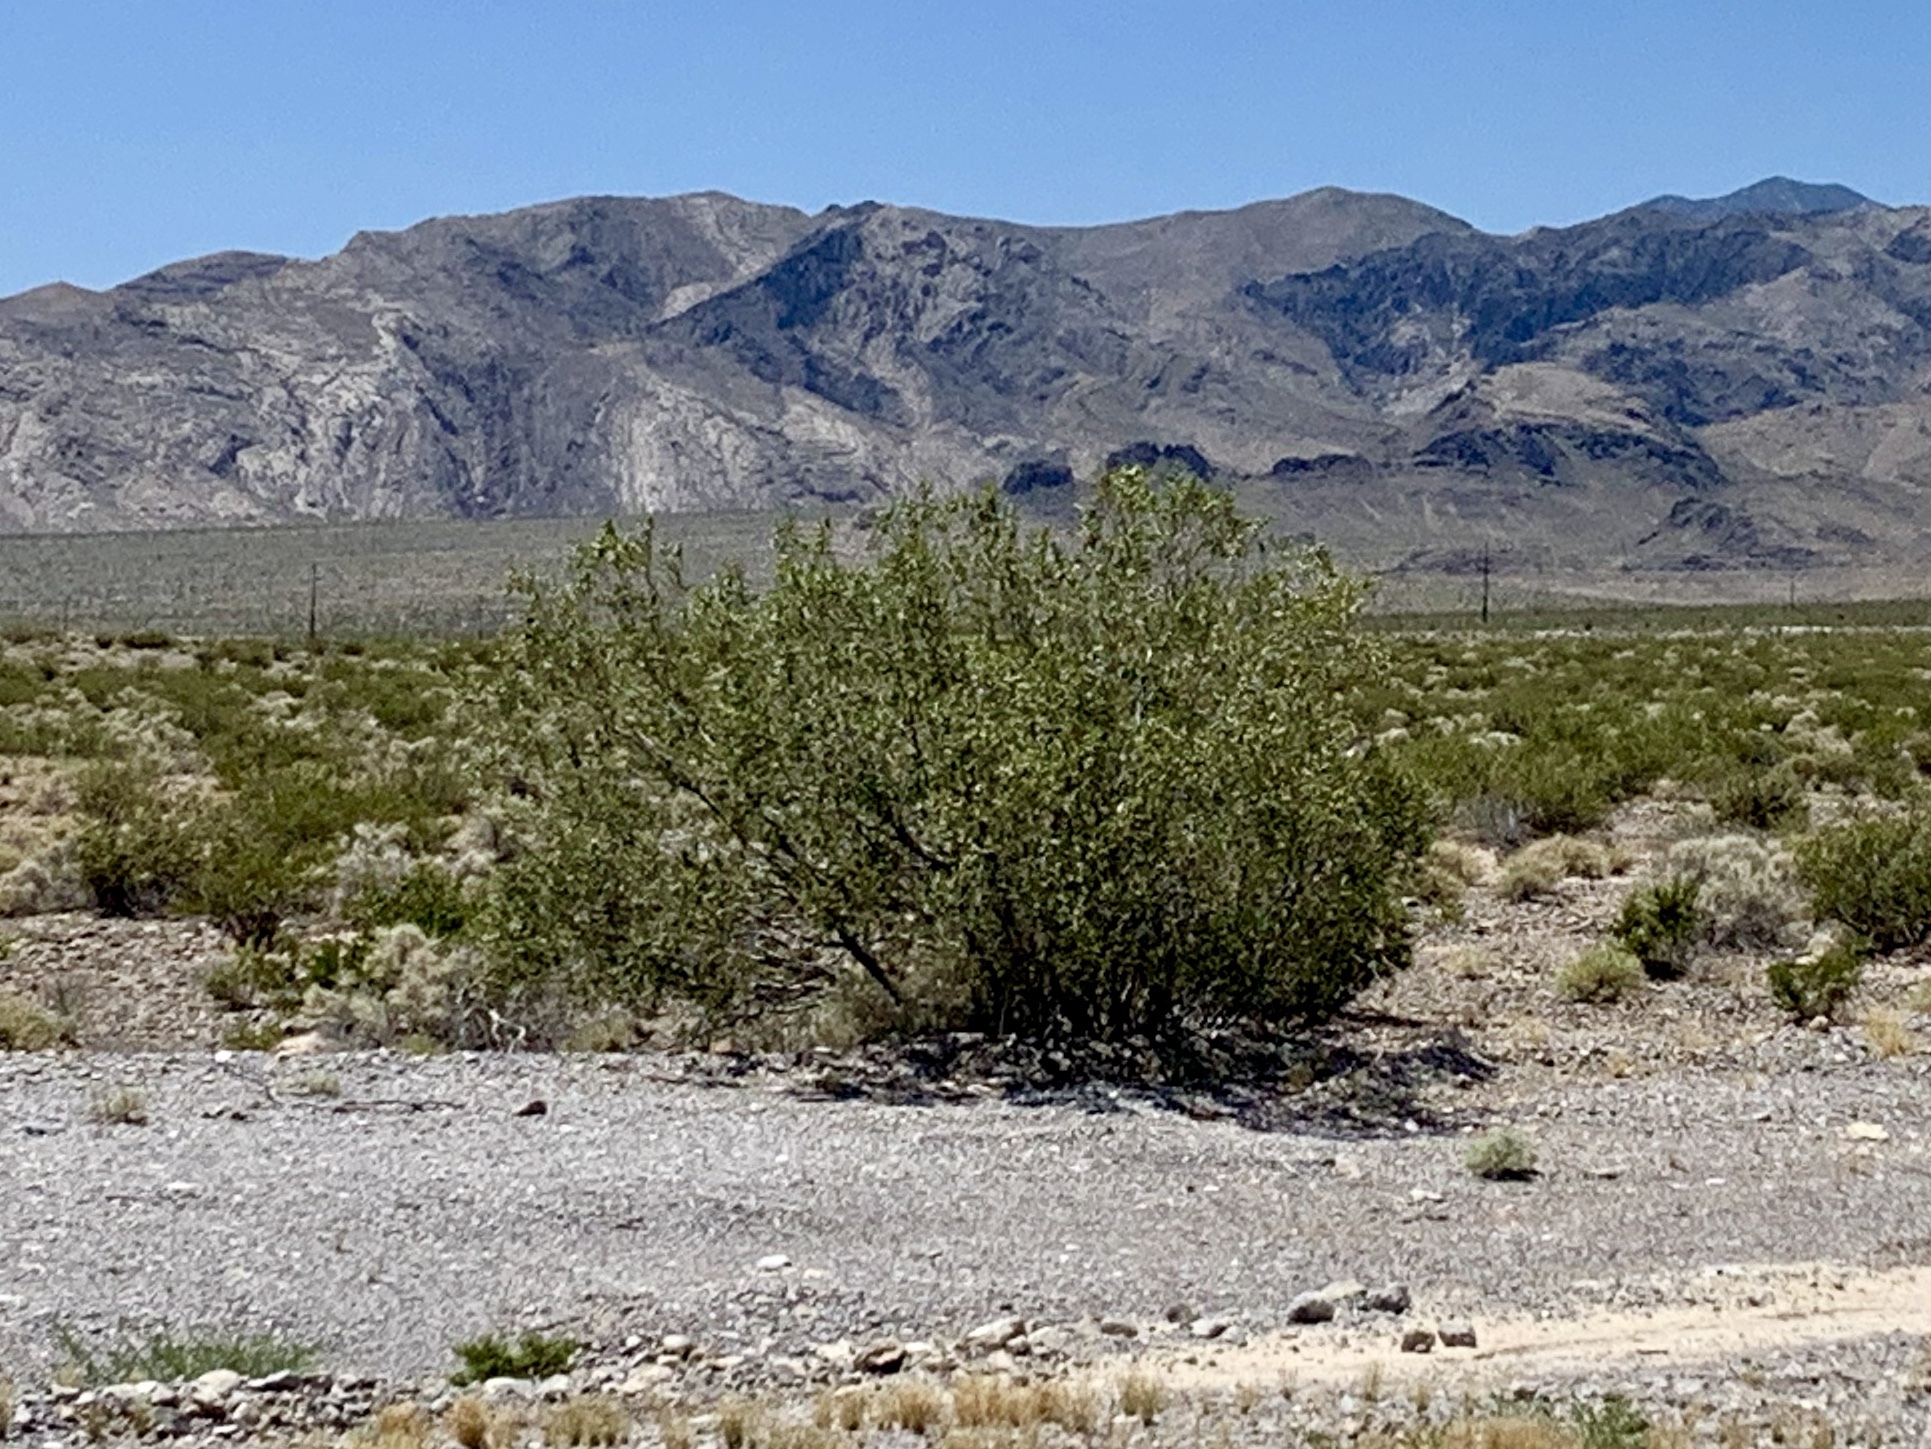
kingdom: Plantae
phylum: Tracheophyta
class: Magnoliopsida
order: Zygophyllales
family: Zygophyllaceae
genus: Larrea
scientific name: Larrea tridentata
